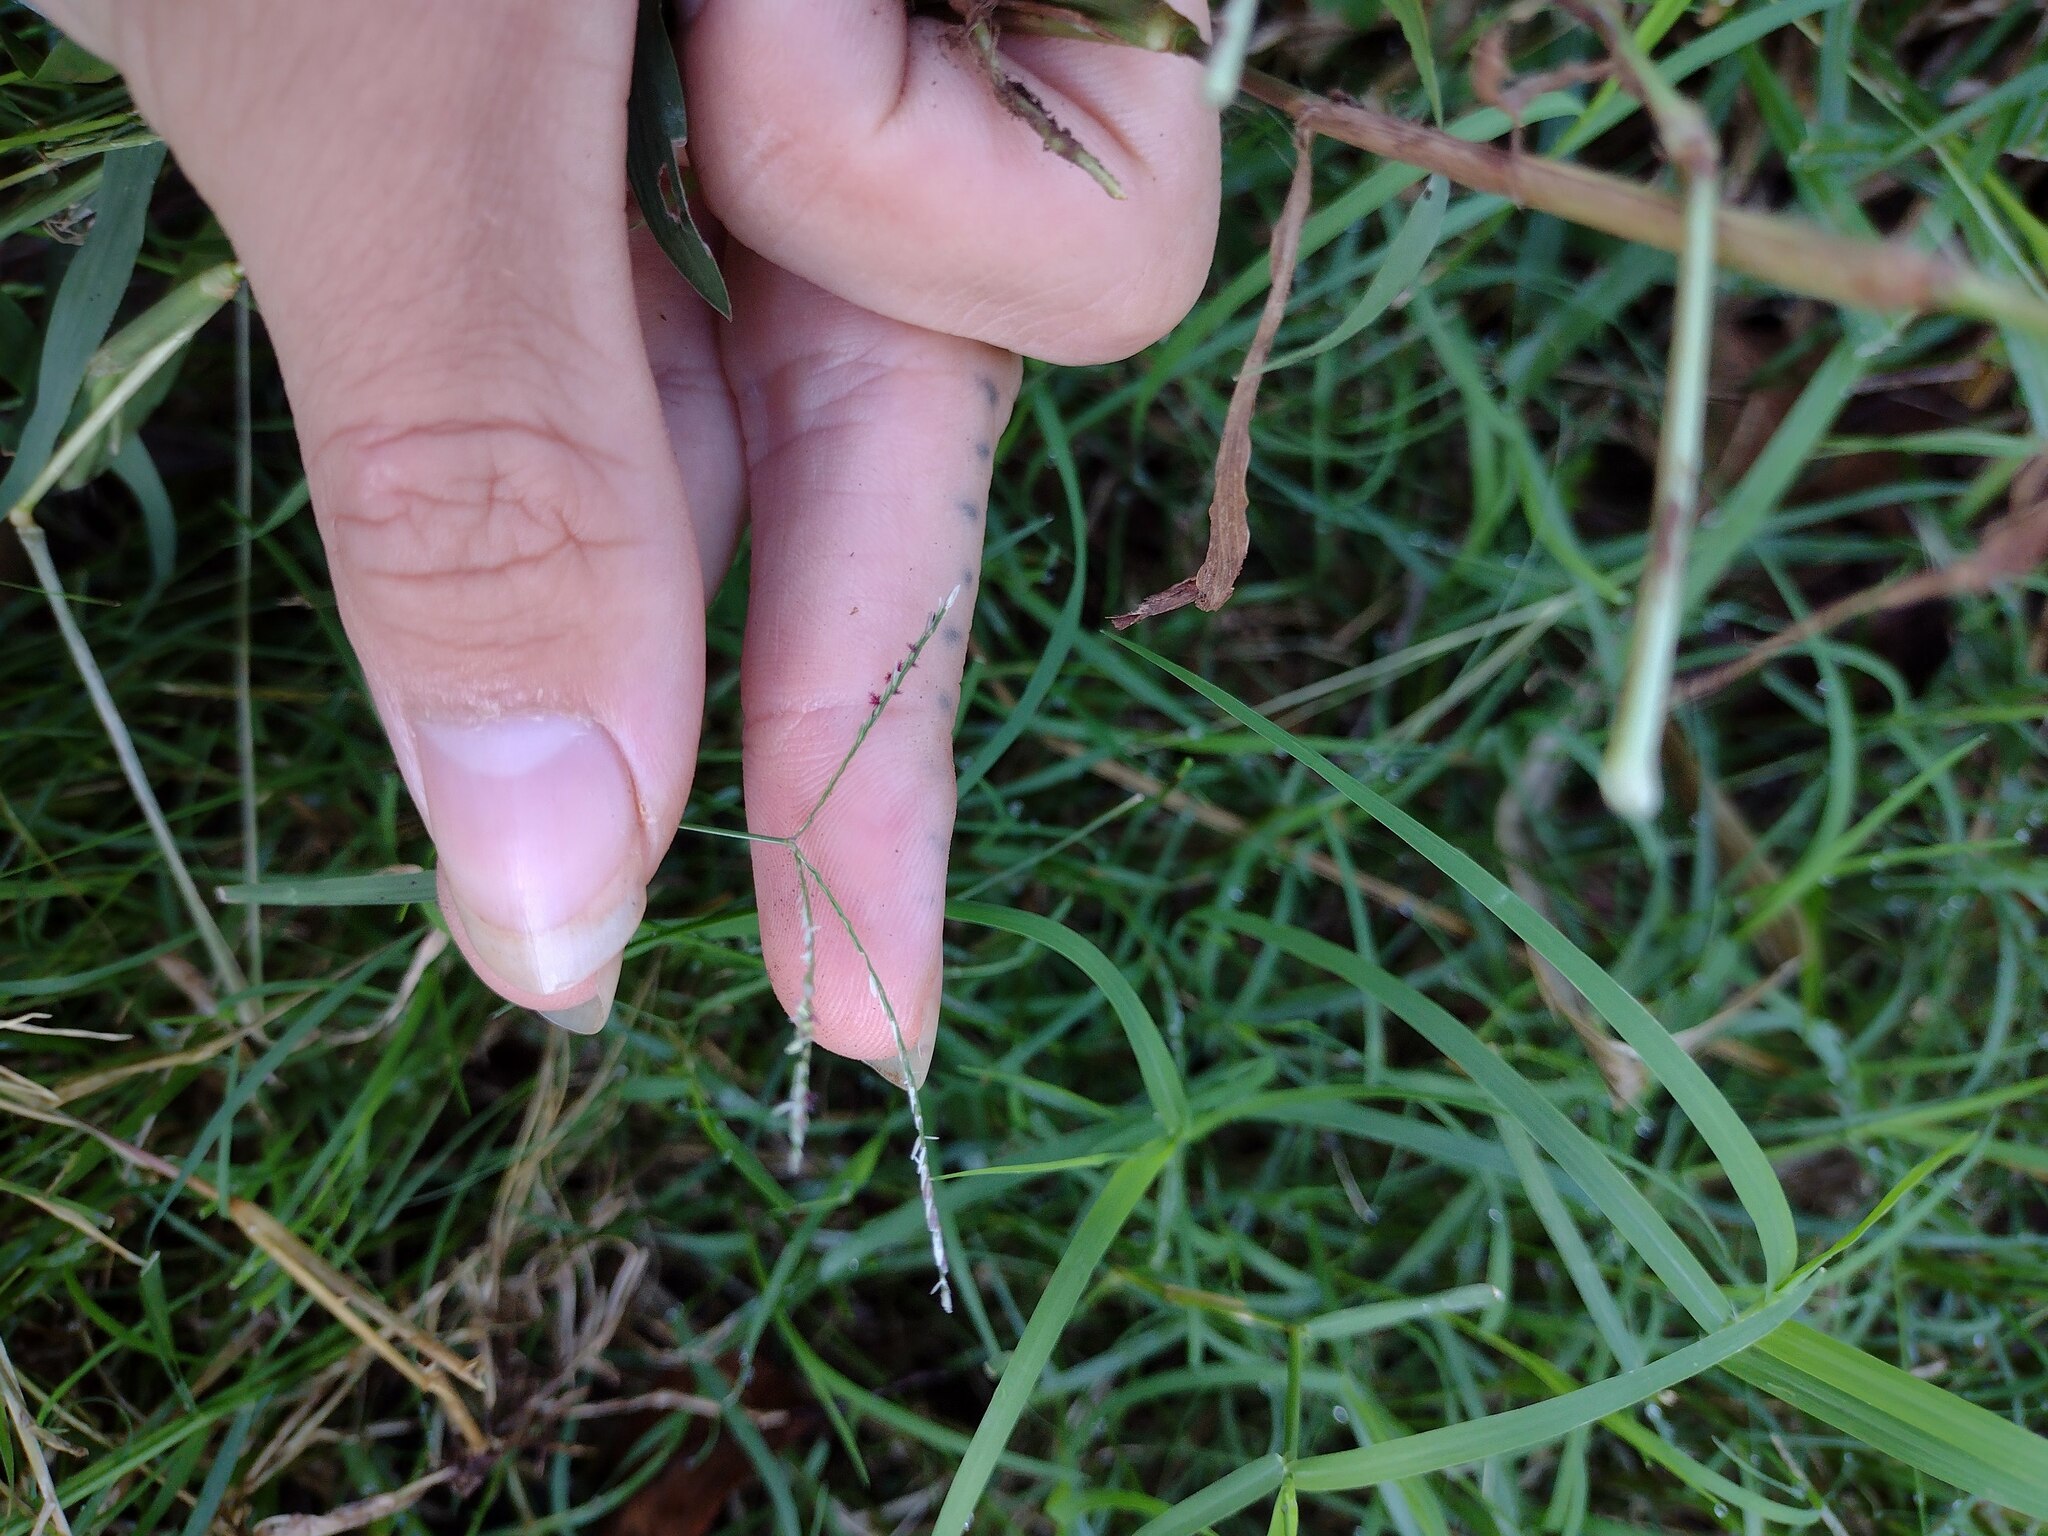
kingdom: Plantae
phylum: Tracheophyta
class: Liliopsida
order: Poales
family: Poaceae
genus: Cynodon
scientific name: Cynodon dactylon
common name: Bermuda grass
